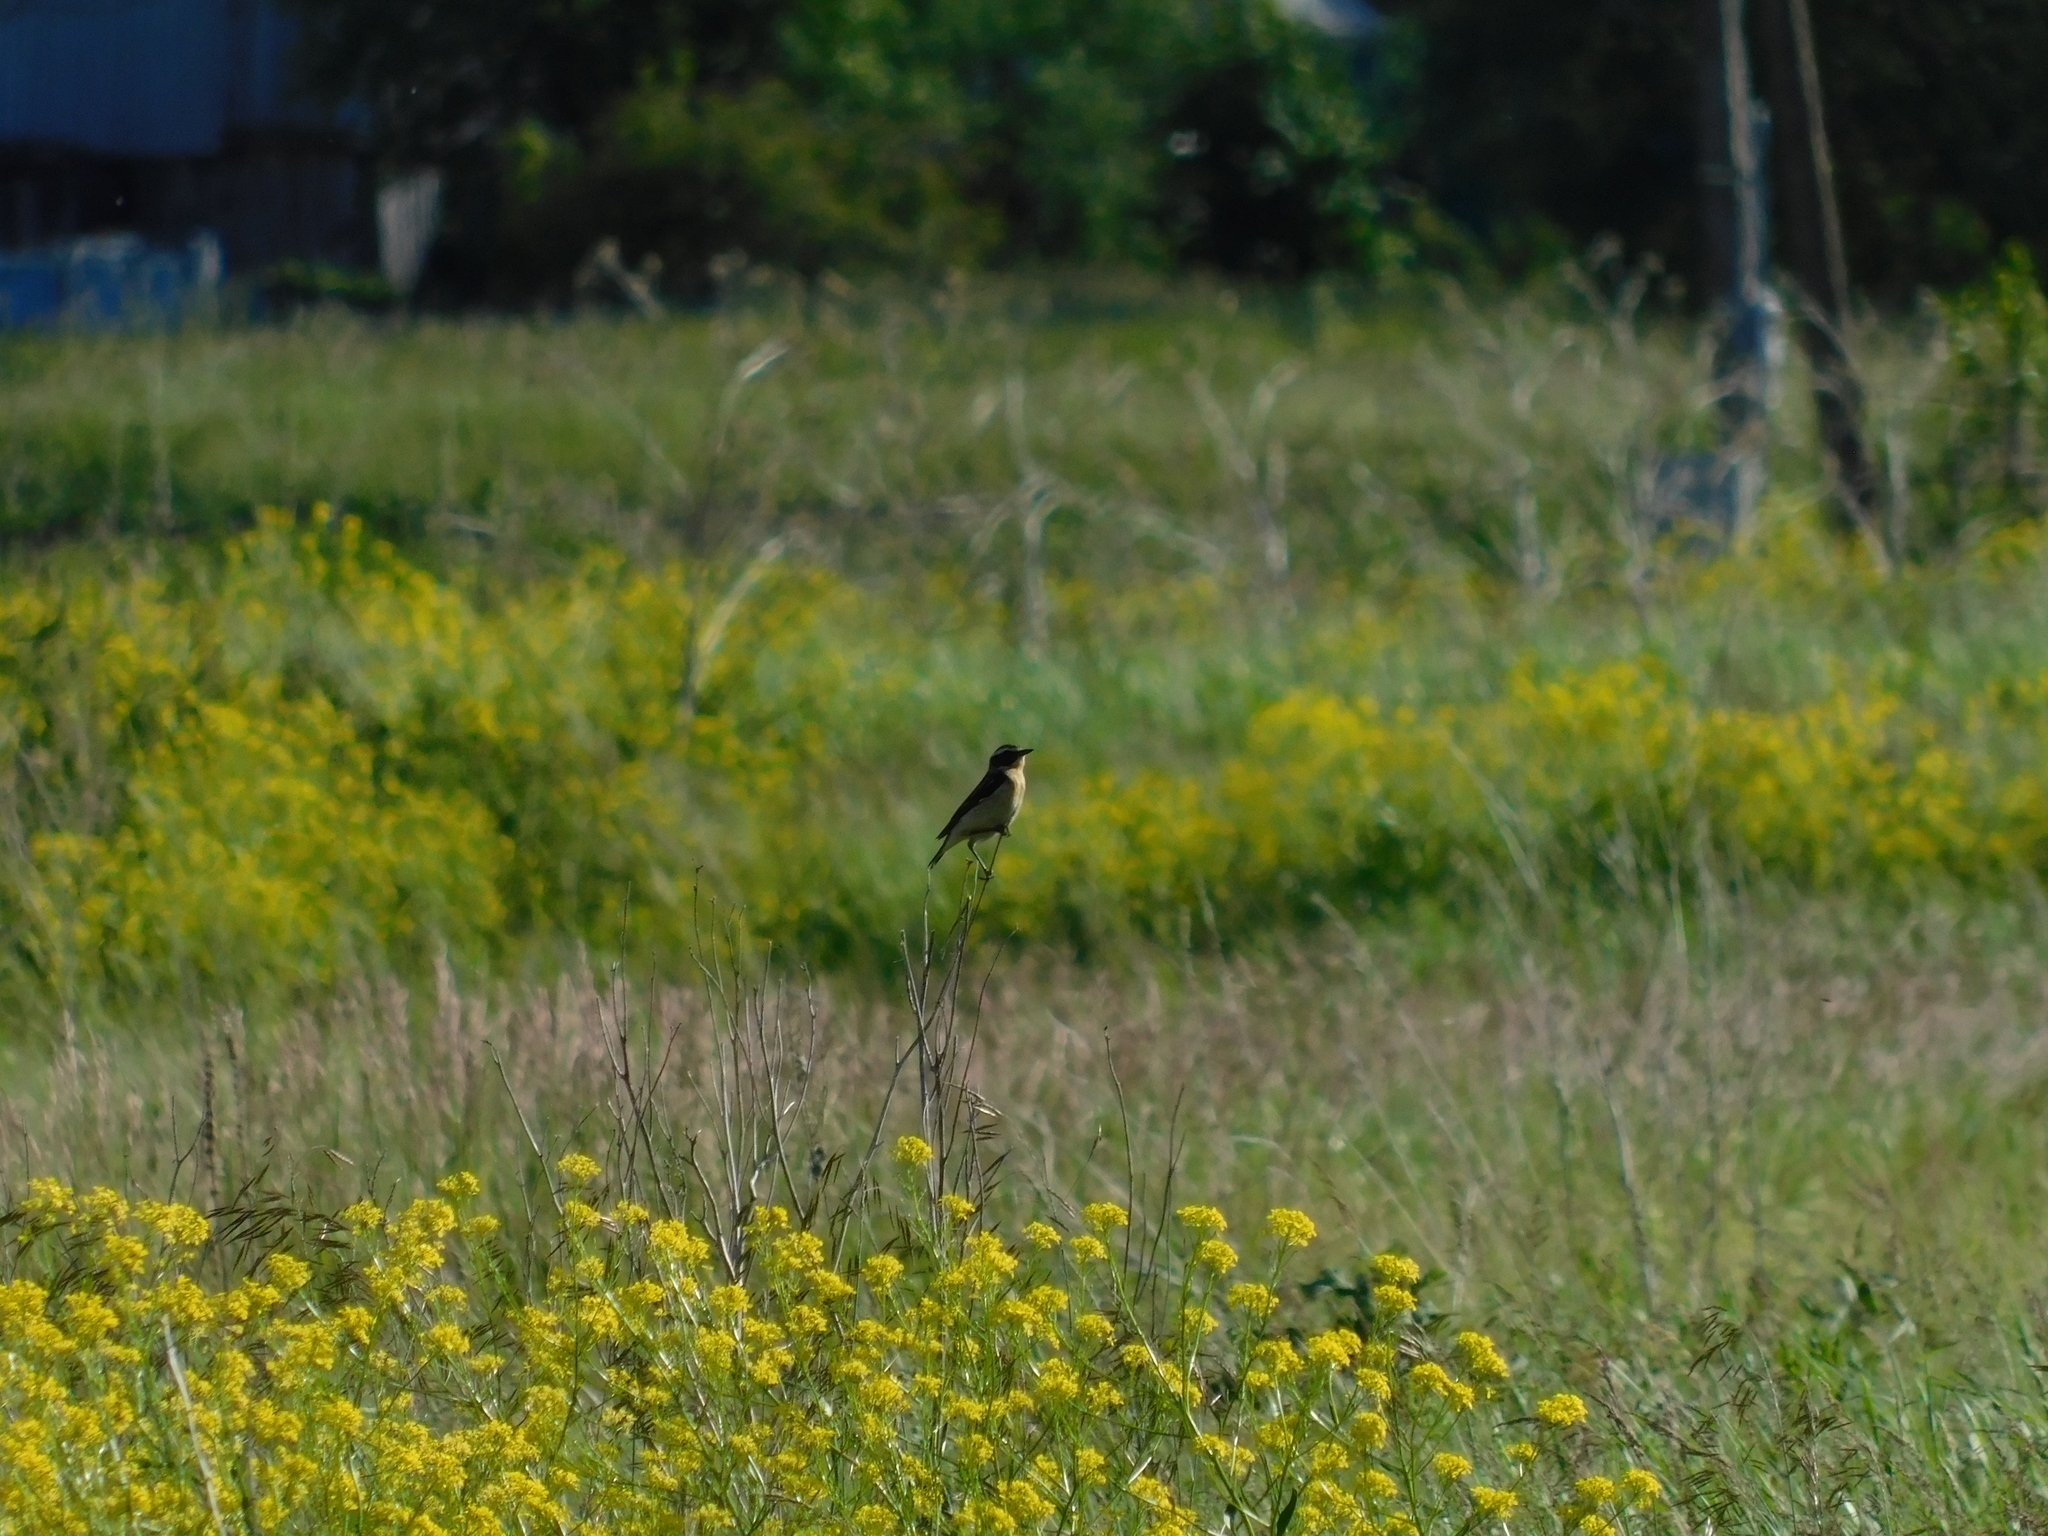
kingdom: Animalia
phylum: Chordata
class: Aves
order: Passeriformes
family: Muscicapidae
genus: Saxicola
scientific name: Saxicola rubetra
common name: Whinchat
